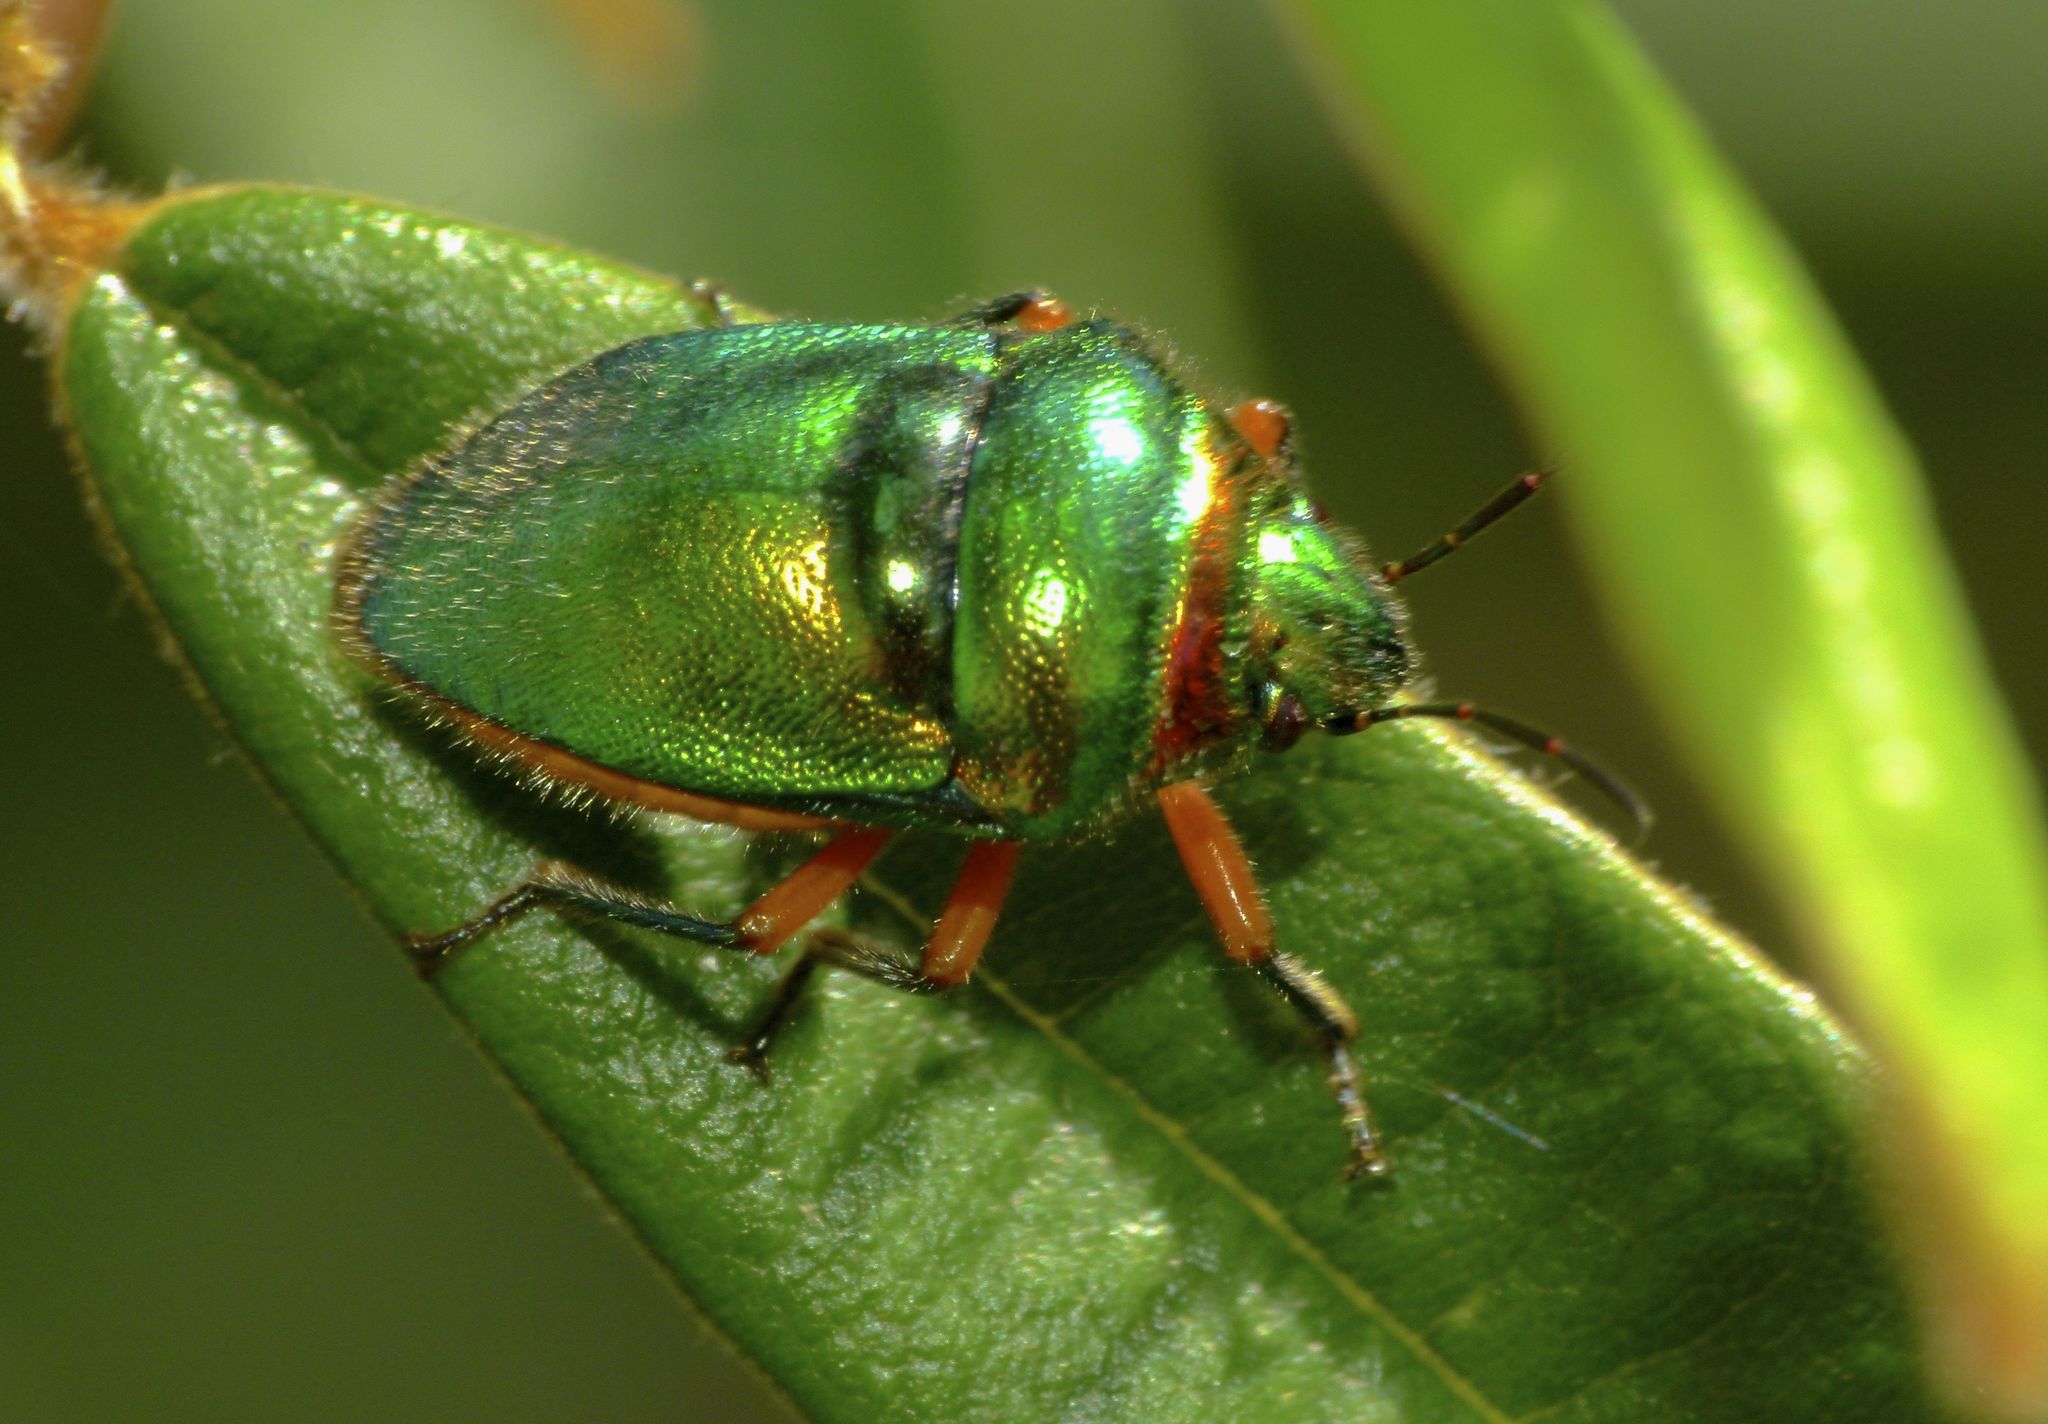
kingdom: Animalia
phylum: Arthropoda
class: Insecta
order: Hemiptera
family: Scutelleridae
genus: Lampromicra
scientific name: Lampromicra senator
